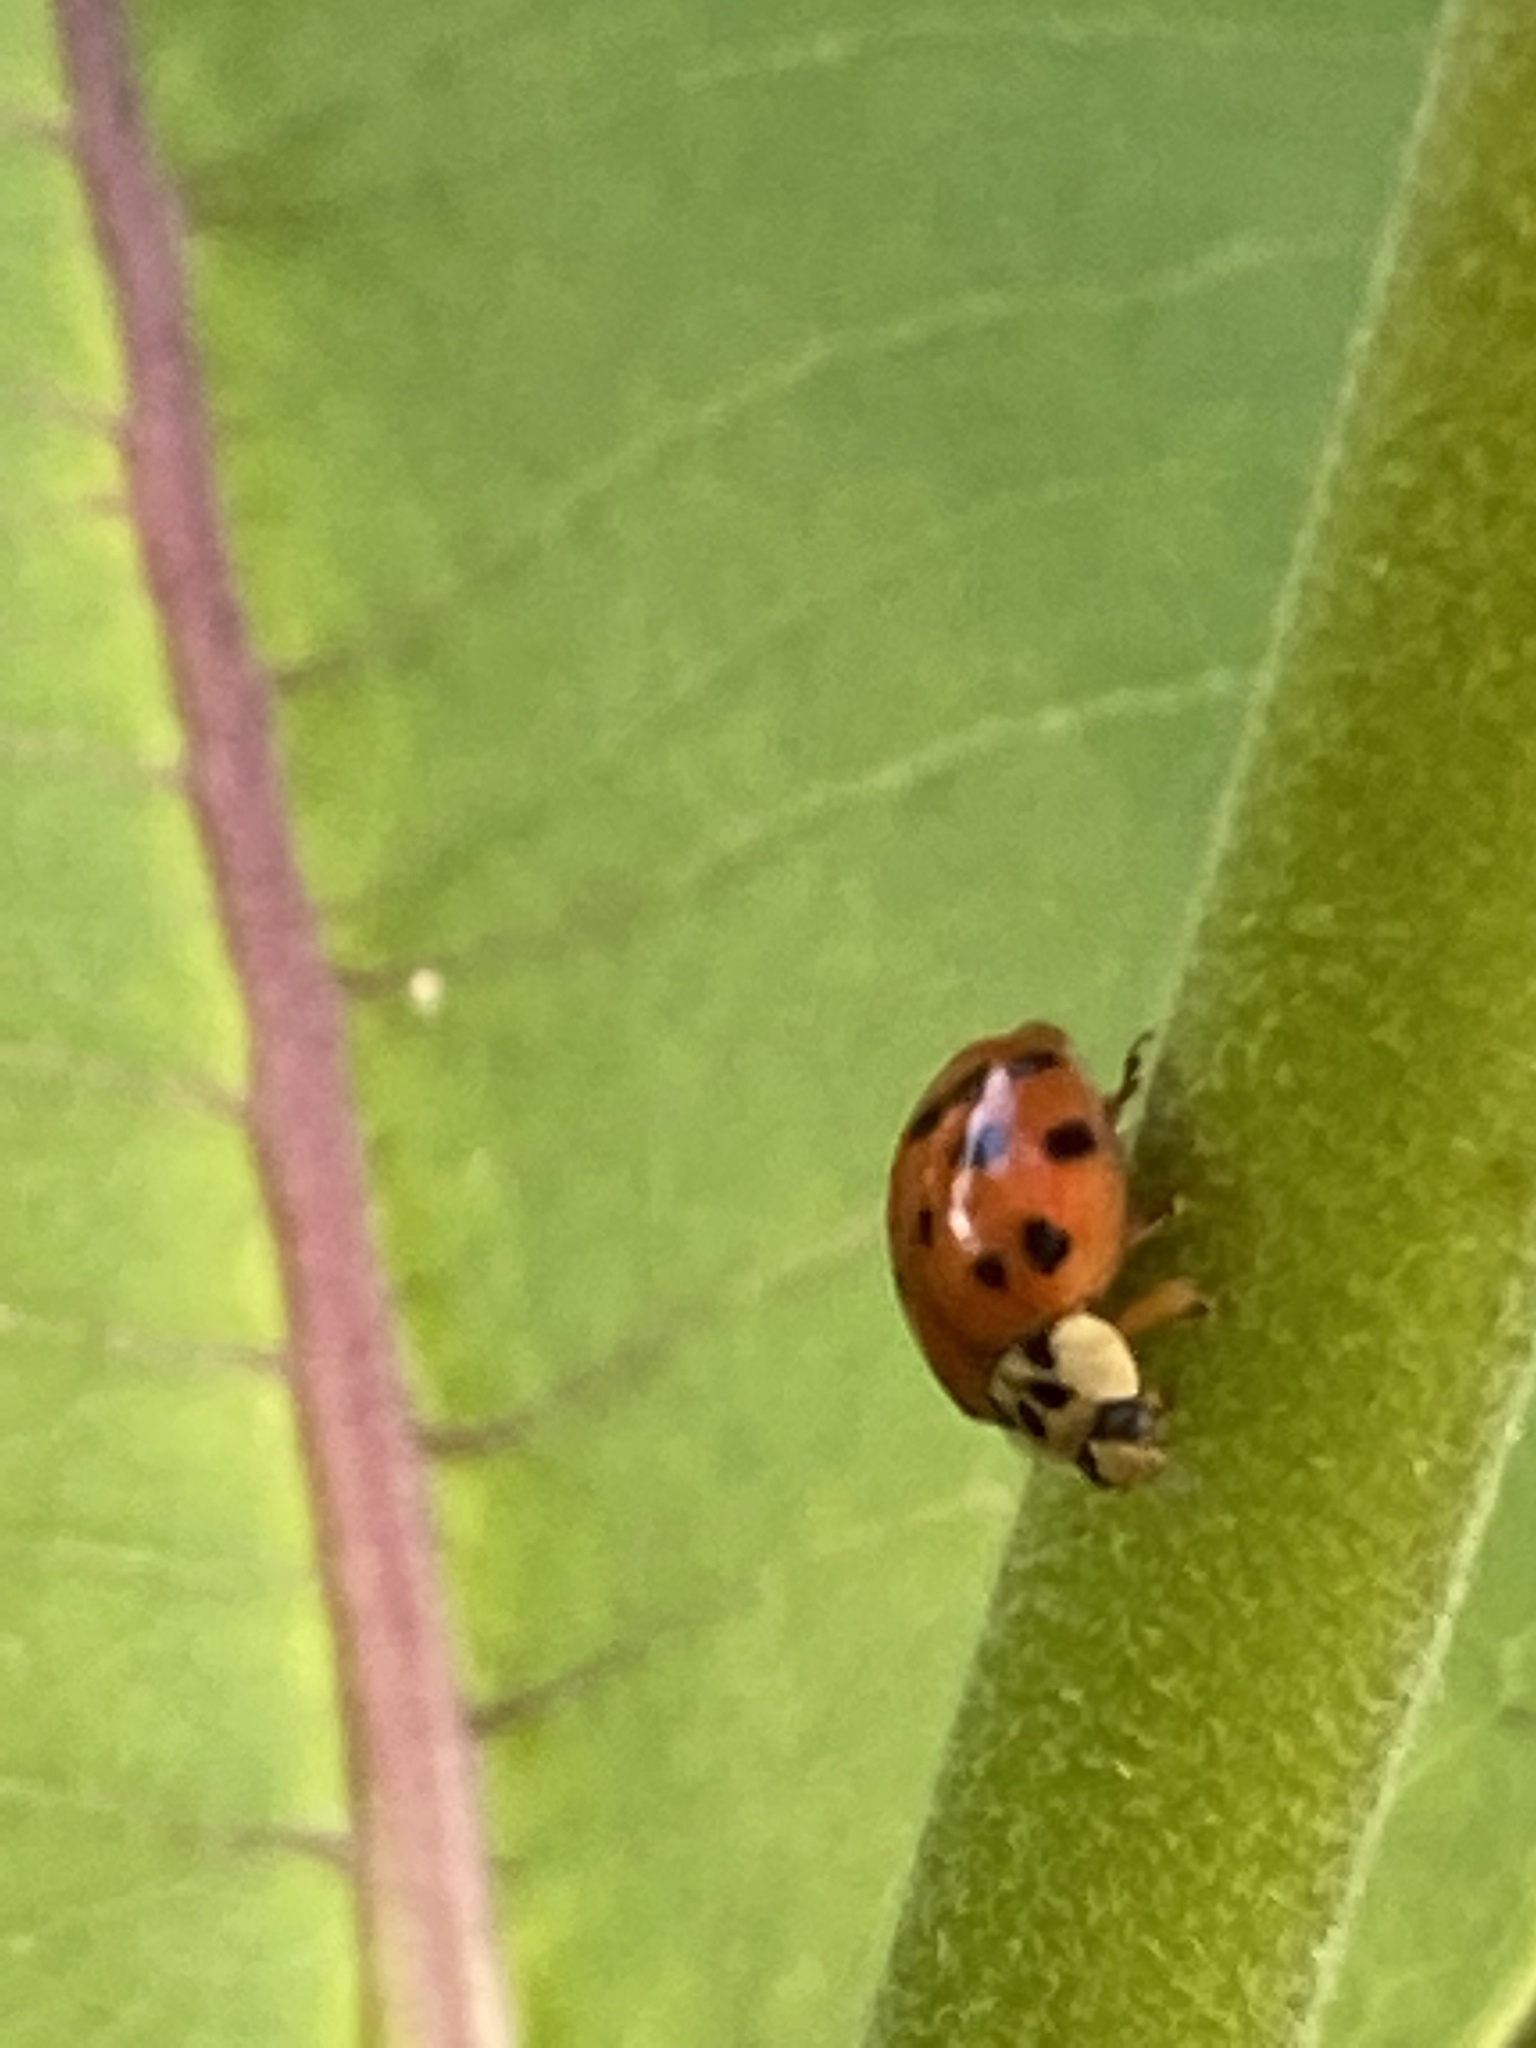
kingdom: Animalia
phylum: Arthropoda
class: Insecta
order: Coleoptera
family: Coccinellidae
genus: Harmonia
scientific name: Harmonia axyridis
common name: Harlequin ladybird
